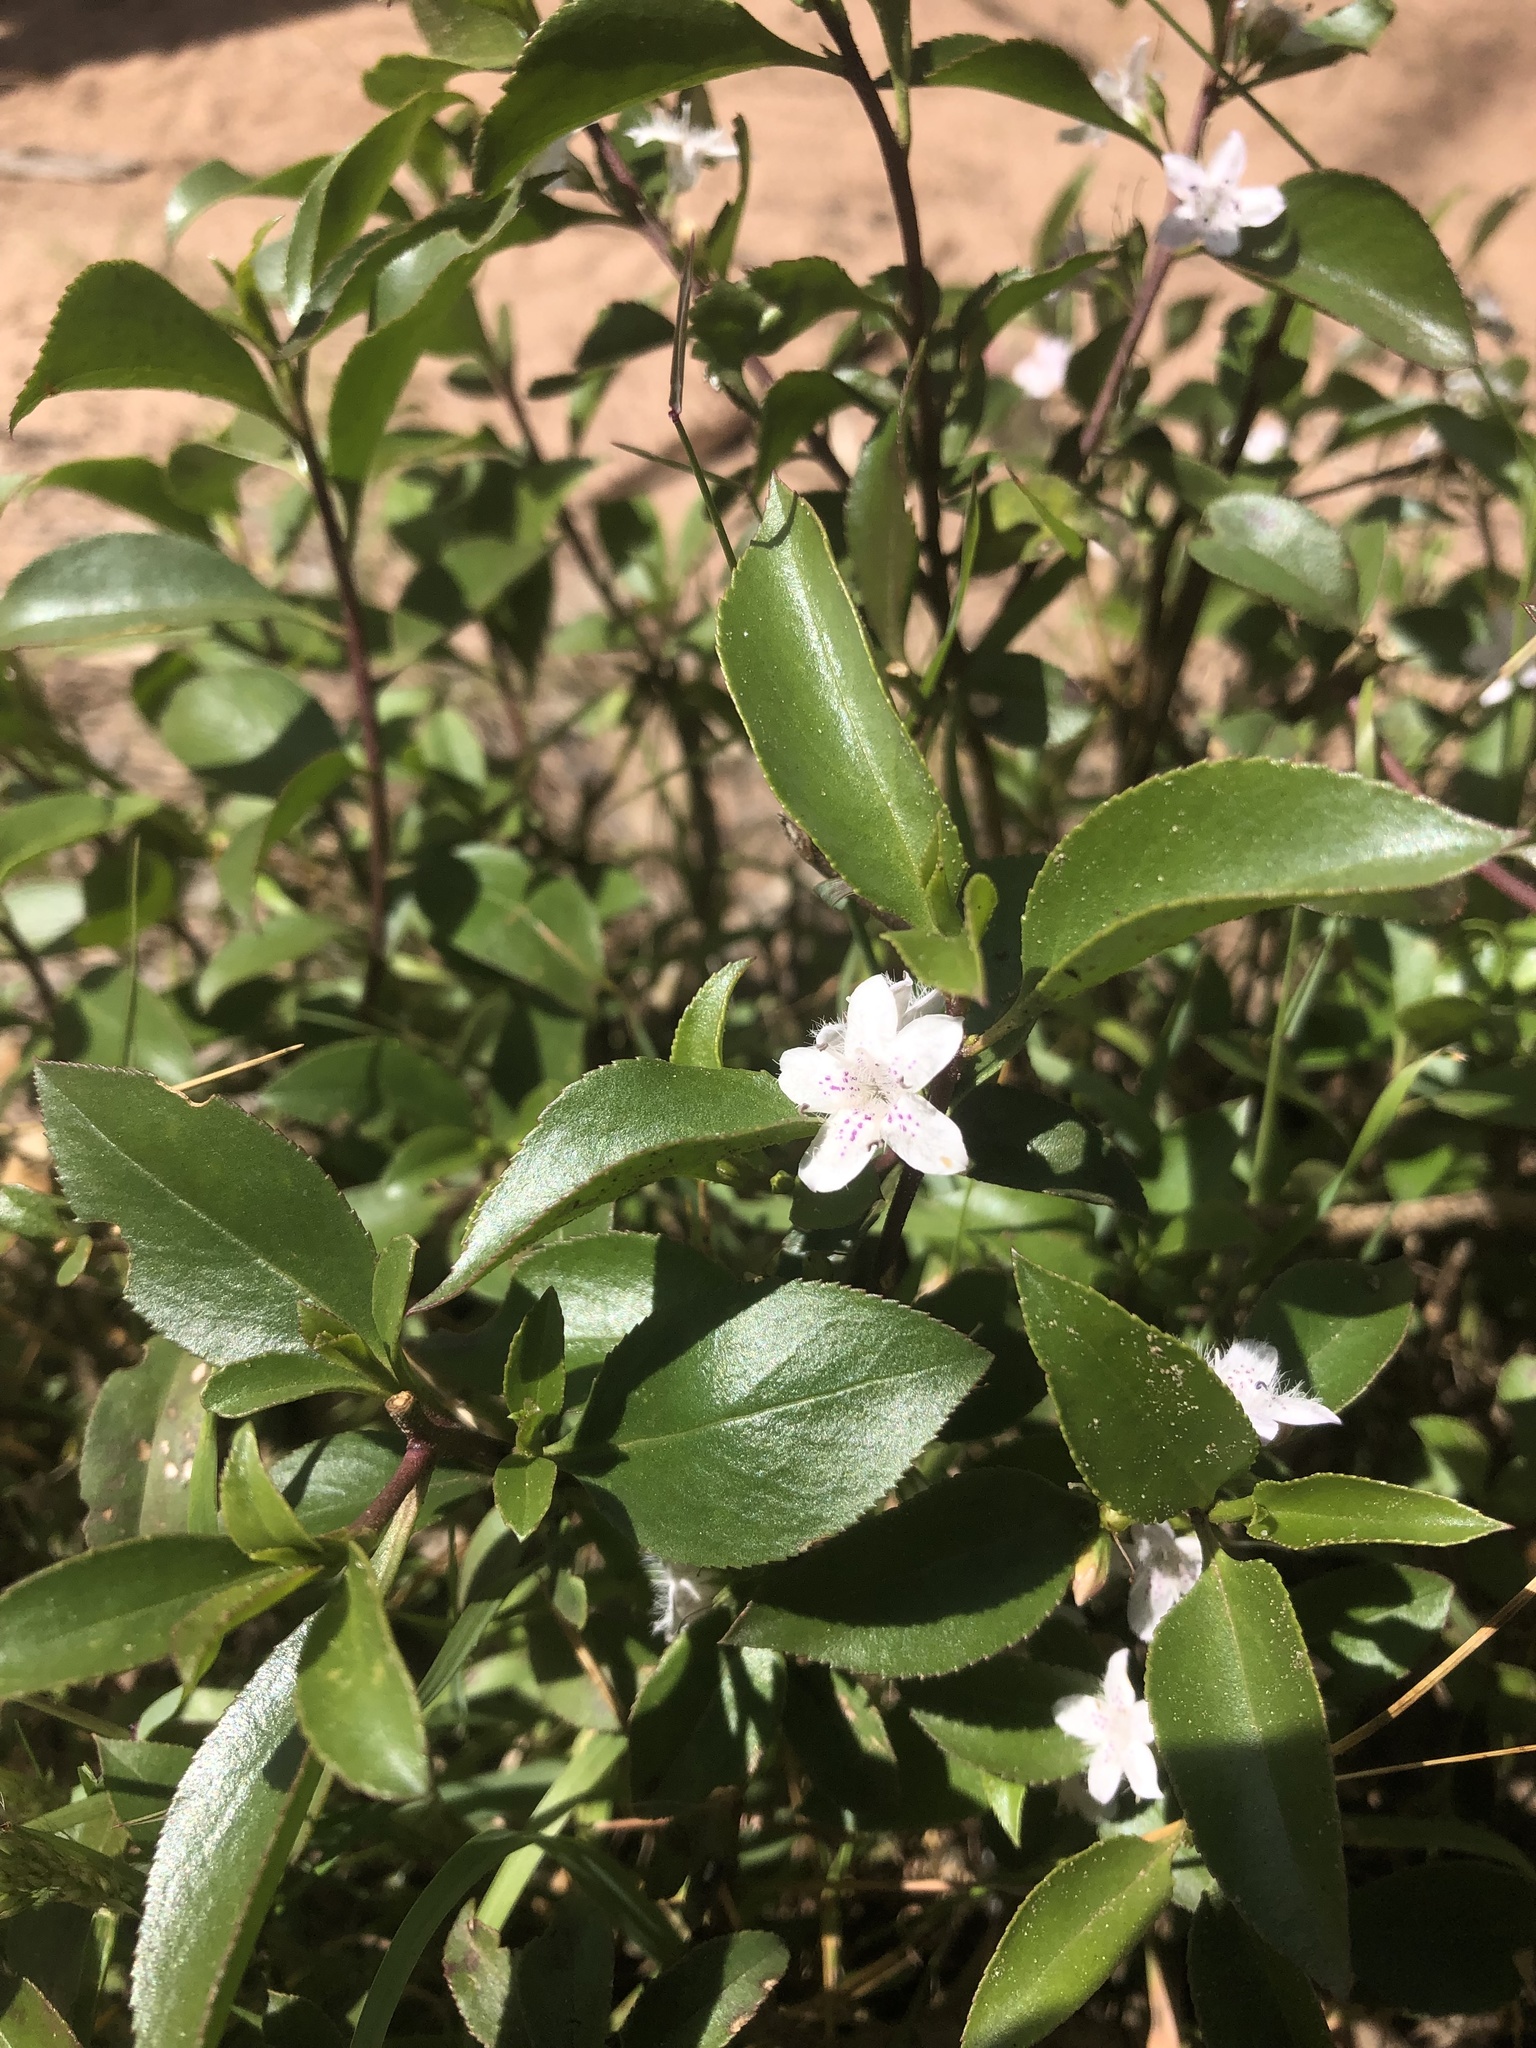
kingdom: Plantae
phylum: Tracheophyta
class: Magnoliopsida
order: Lamiales
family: Scrophulariaceae
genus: Myoporum
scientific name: Myoporum petiolatum
